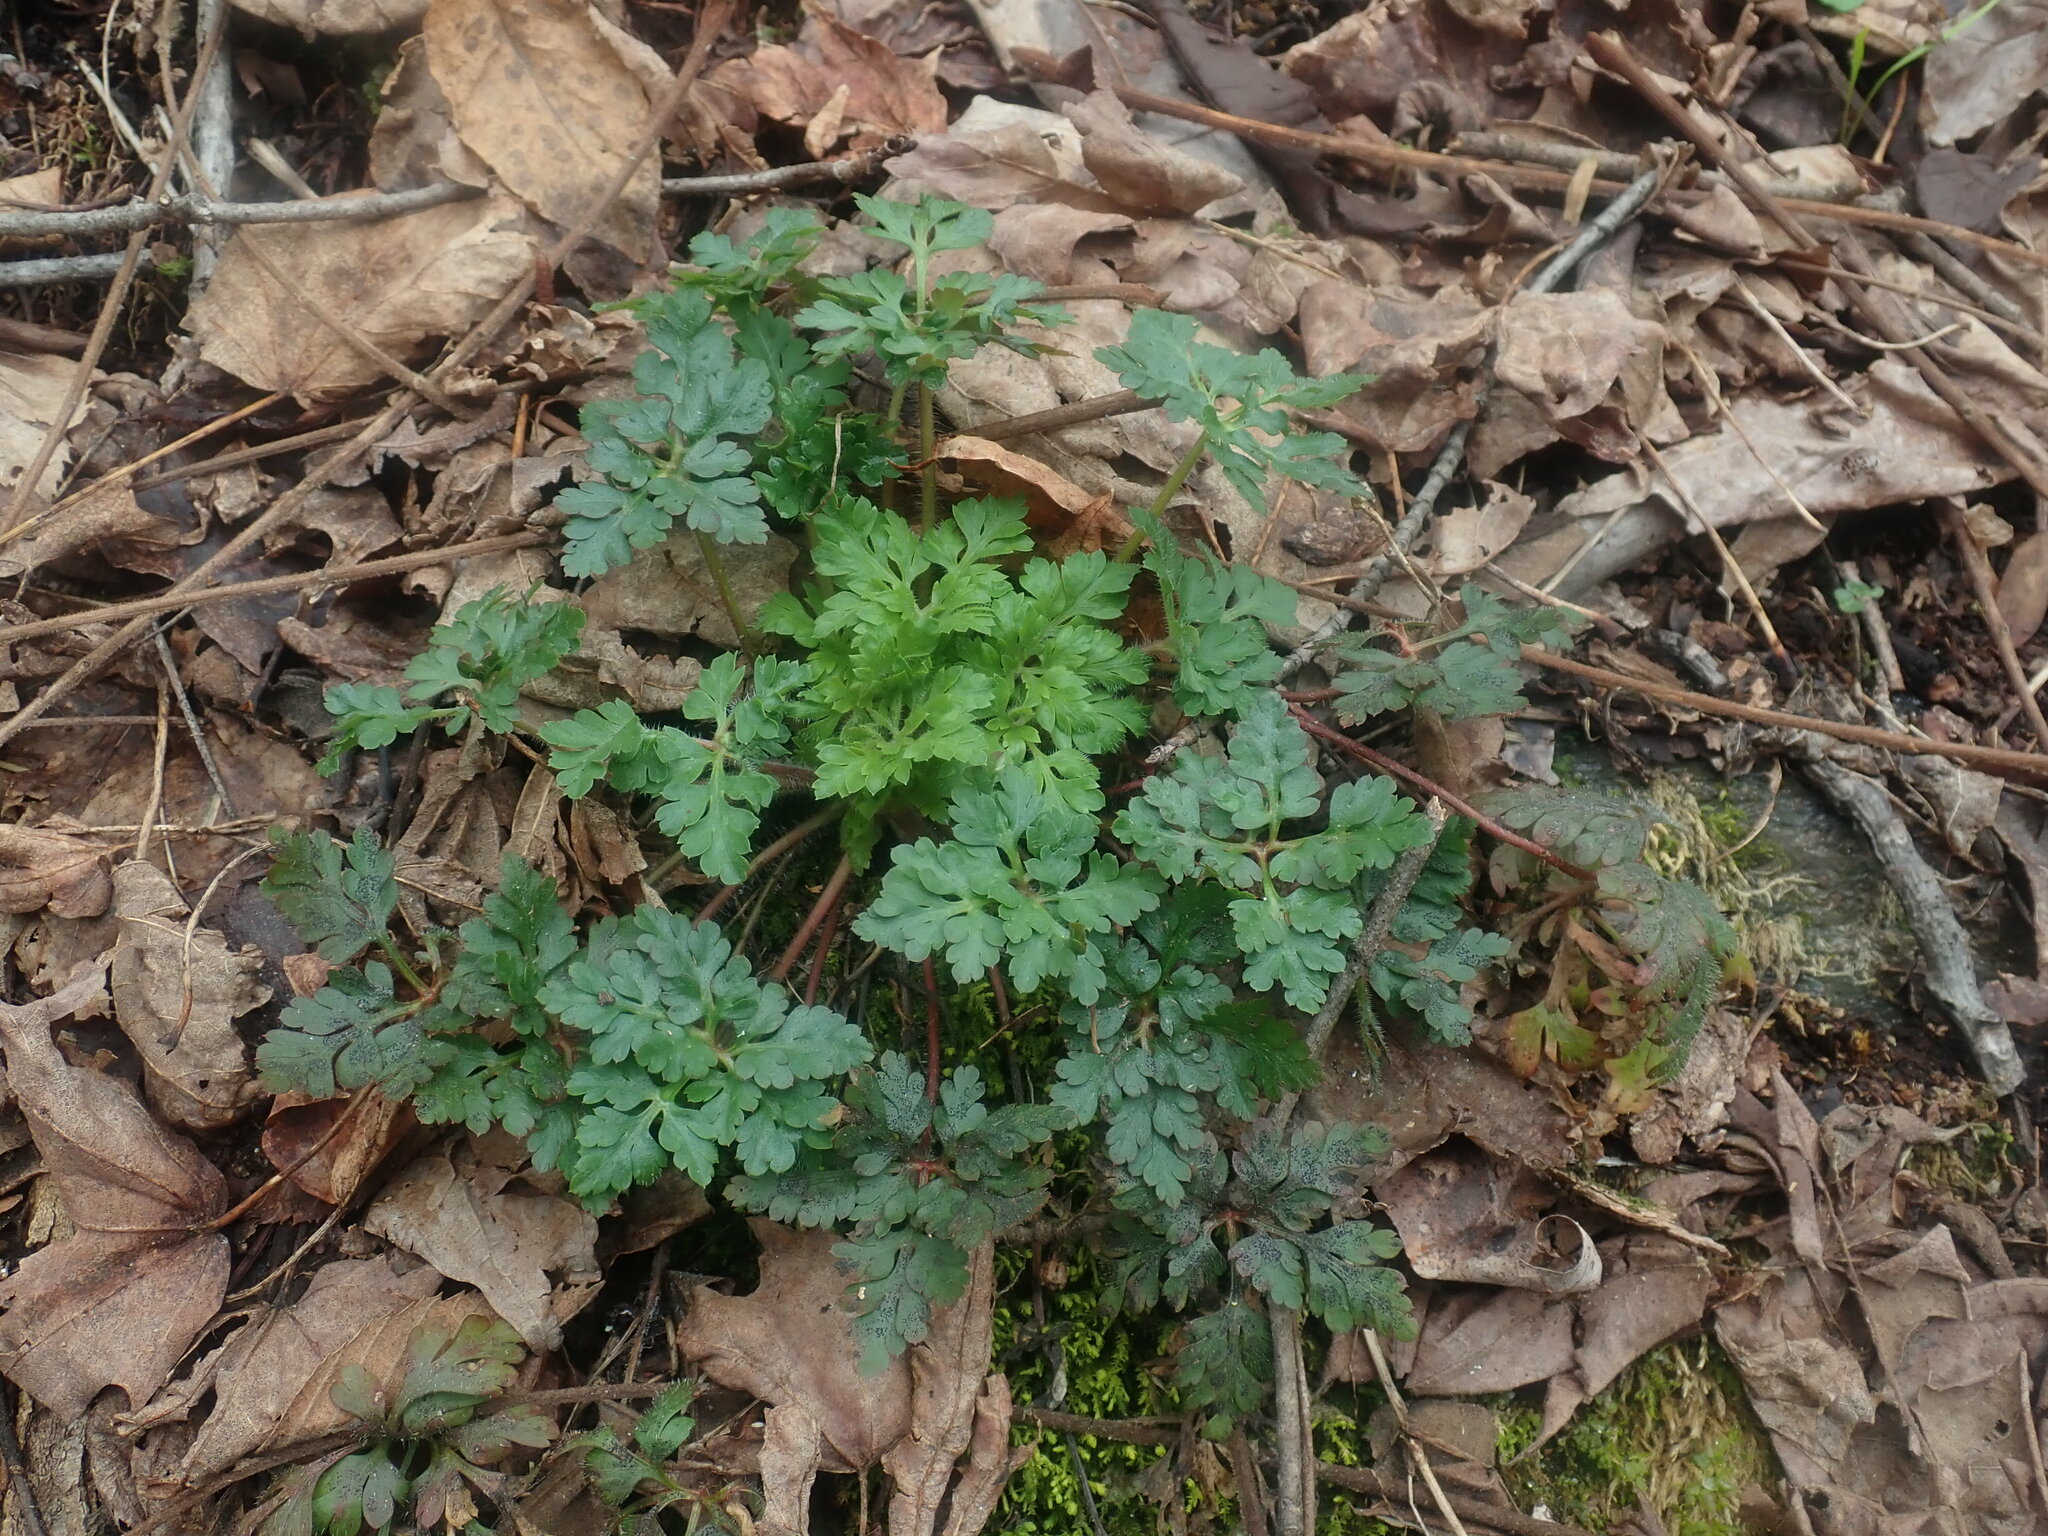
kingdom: Plantae
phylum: Tracheophyta
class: Magnoliopsida
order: Geraniales
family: Geraniaceae
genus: Geranium
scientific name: Geranium robertianum
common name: Herb-robert
